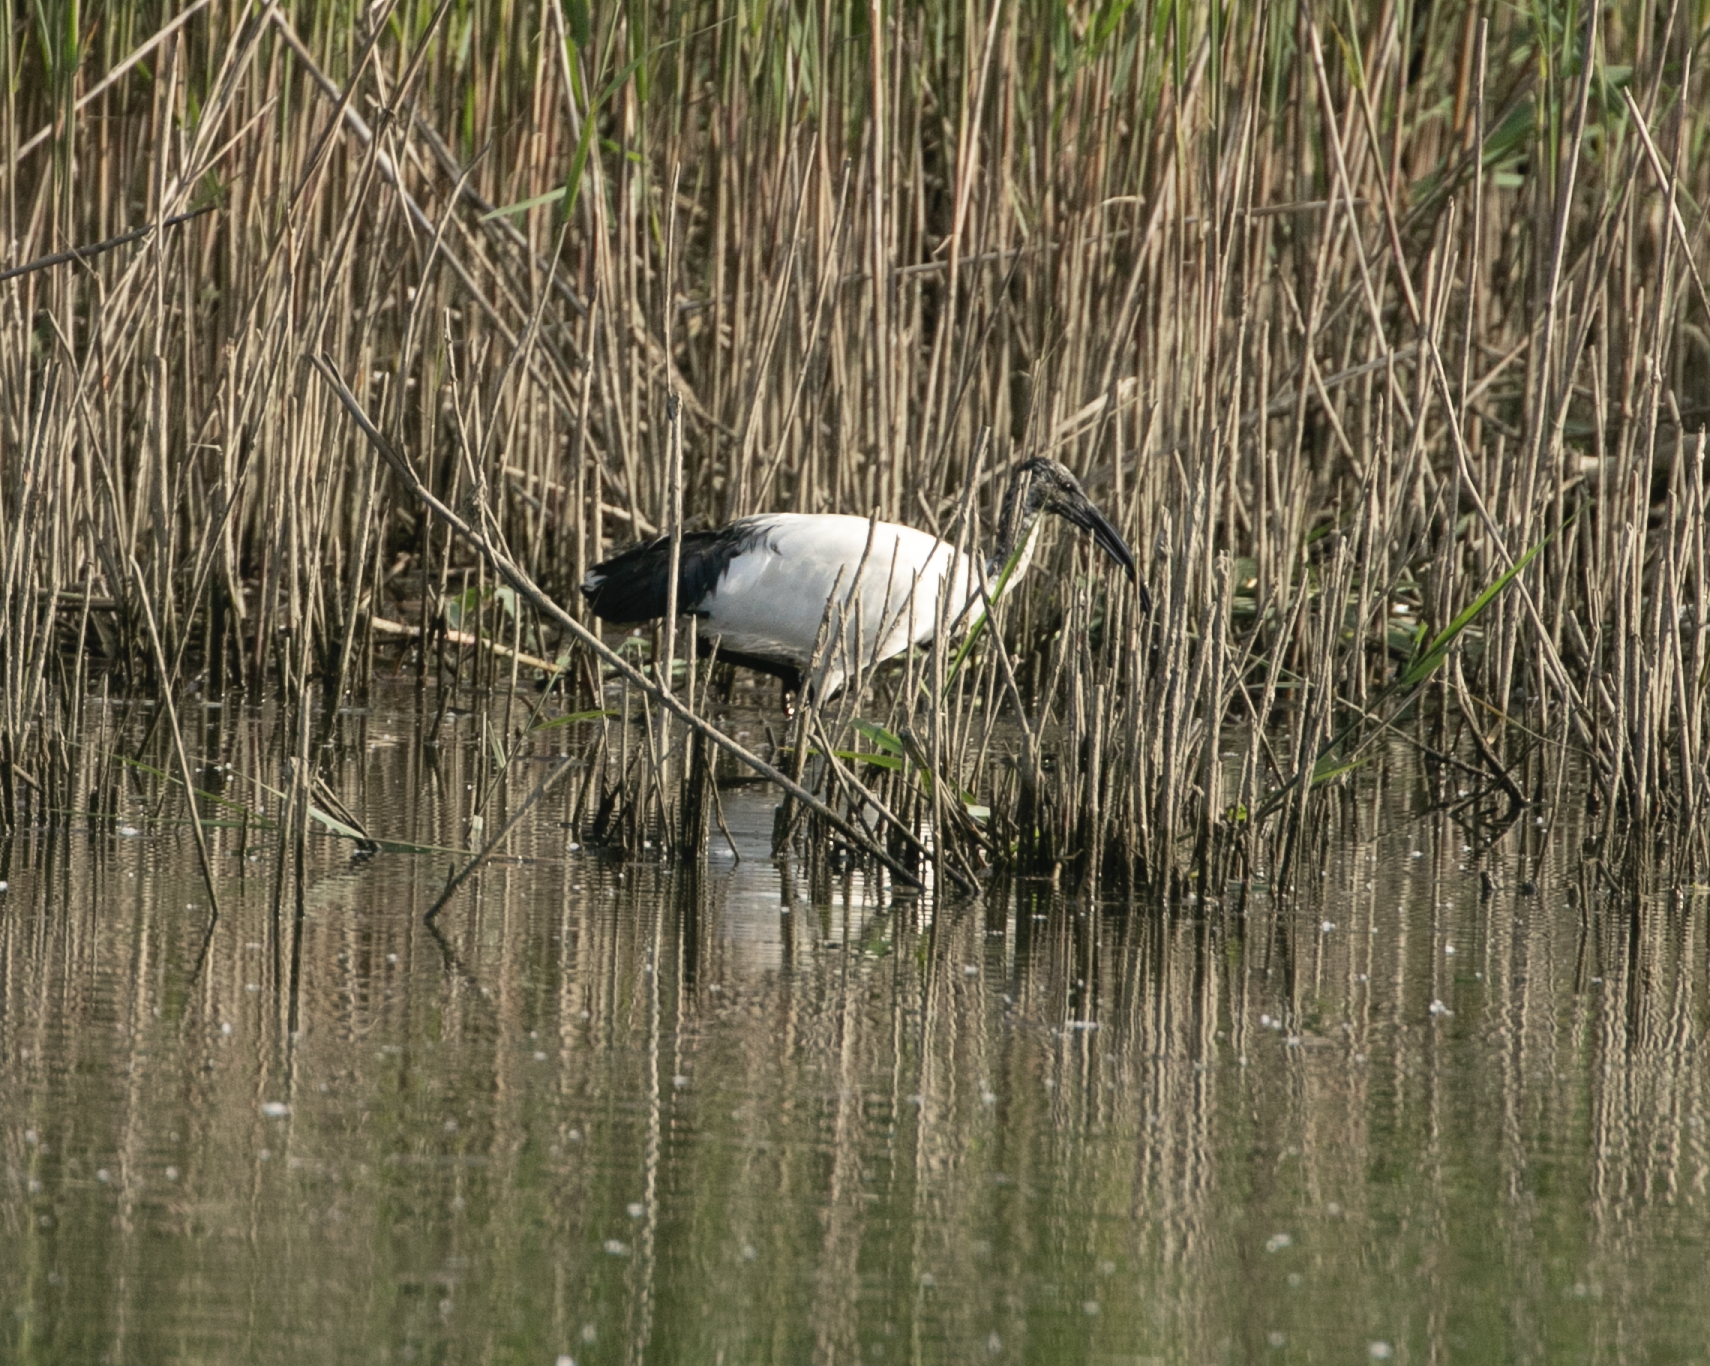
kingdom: Animalia
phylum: Chordata
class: Aves
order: Pelecaniformes
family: Threskiornithidae
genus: Threskiornis
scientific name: Threskiornis aethiopicus
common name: Sacred ibis
